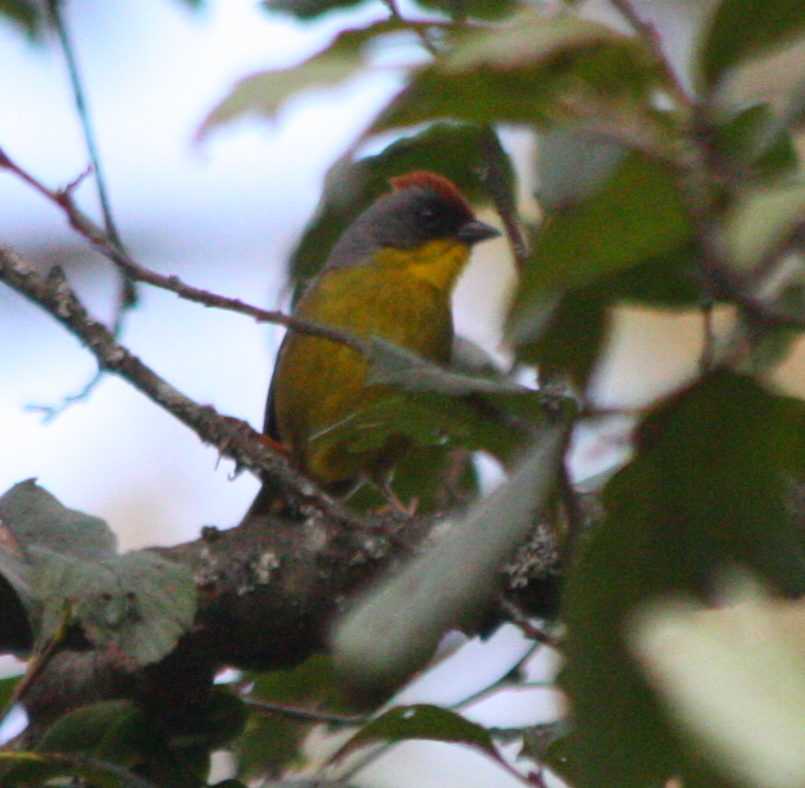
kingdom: Animalia
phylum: Chordata
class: Aves
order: Passeriformes
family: Passerellidae
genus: Atlapetes
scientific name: Atlapetes pileatus
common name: Rufous-capped brush-finch
